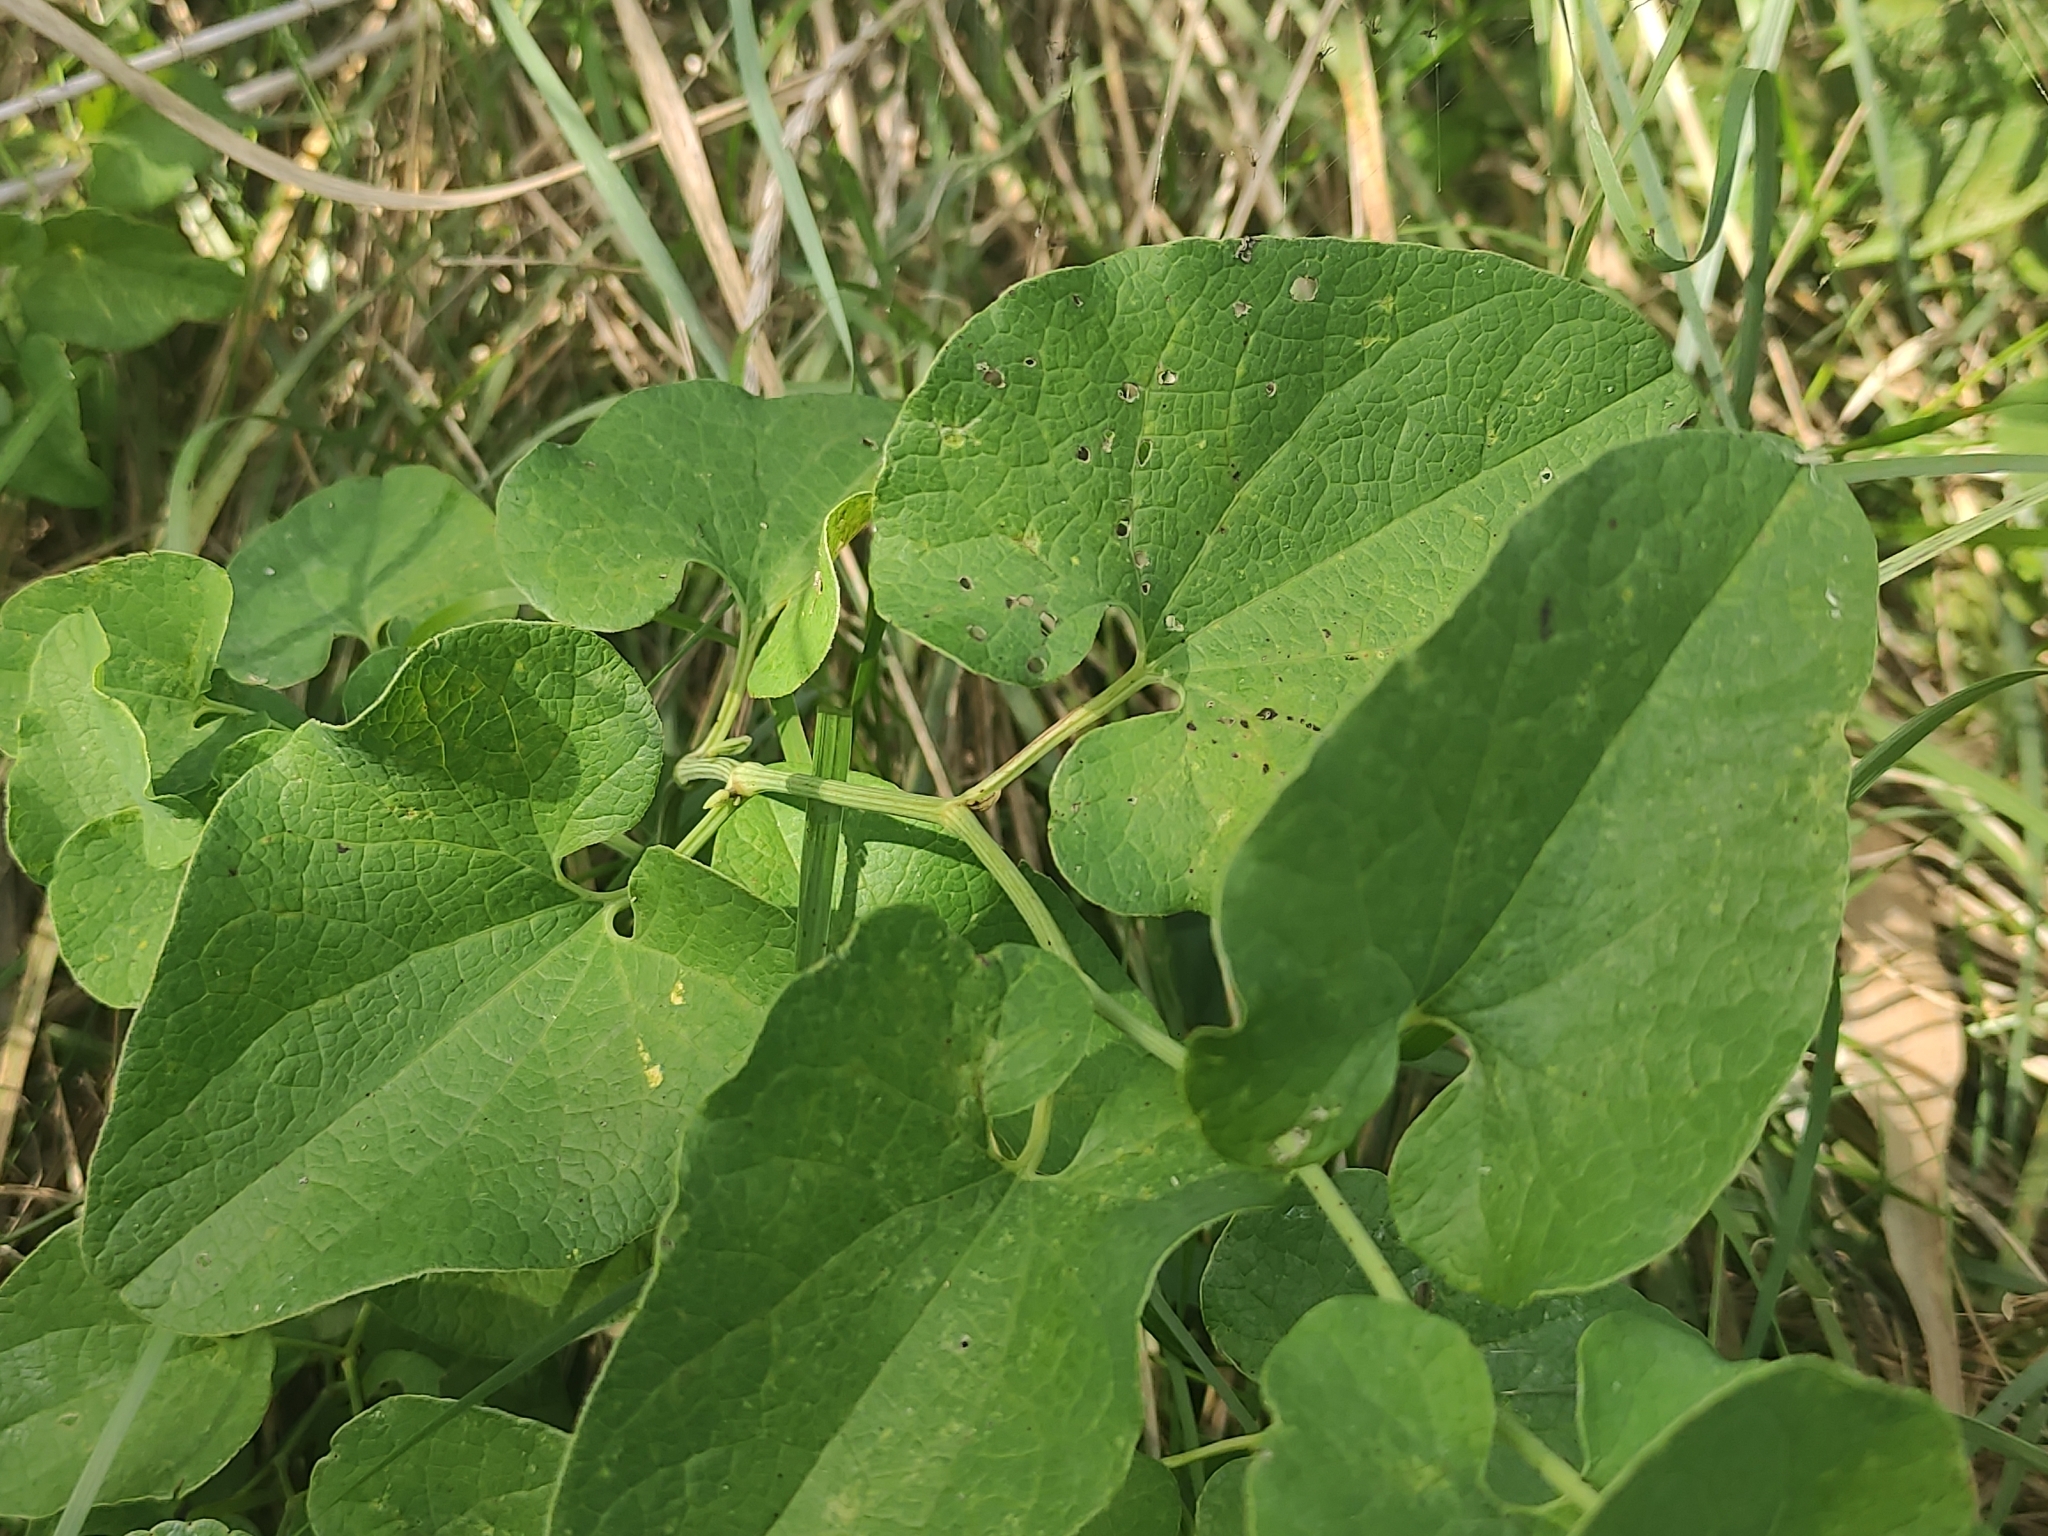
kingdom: Plantae
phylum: Tracheophyta
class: Magnoliopsida
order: Piperales
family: Aristolochiaceae
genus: Aristolochia
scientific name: Aristolochia clematitis
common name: Birthwort
